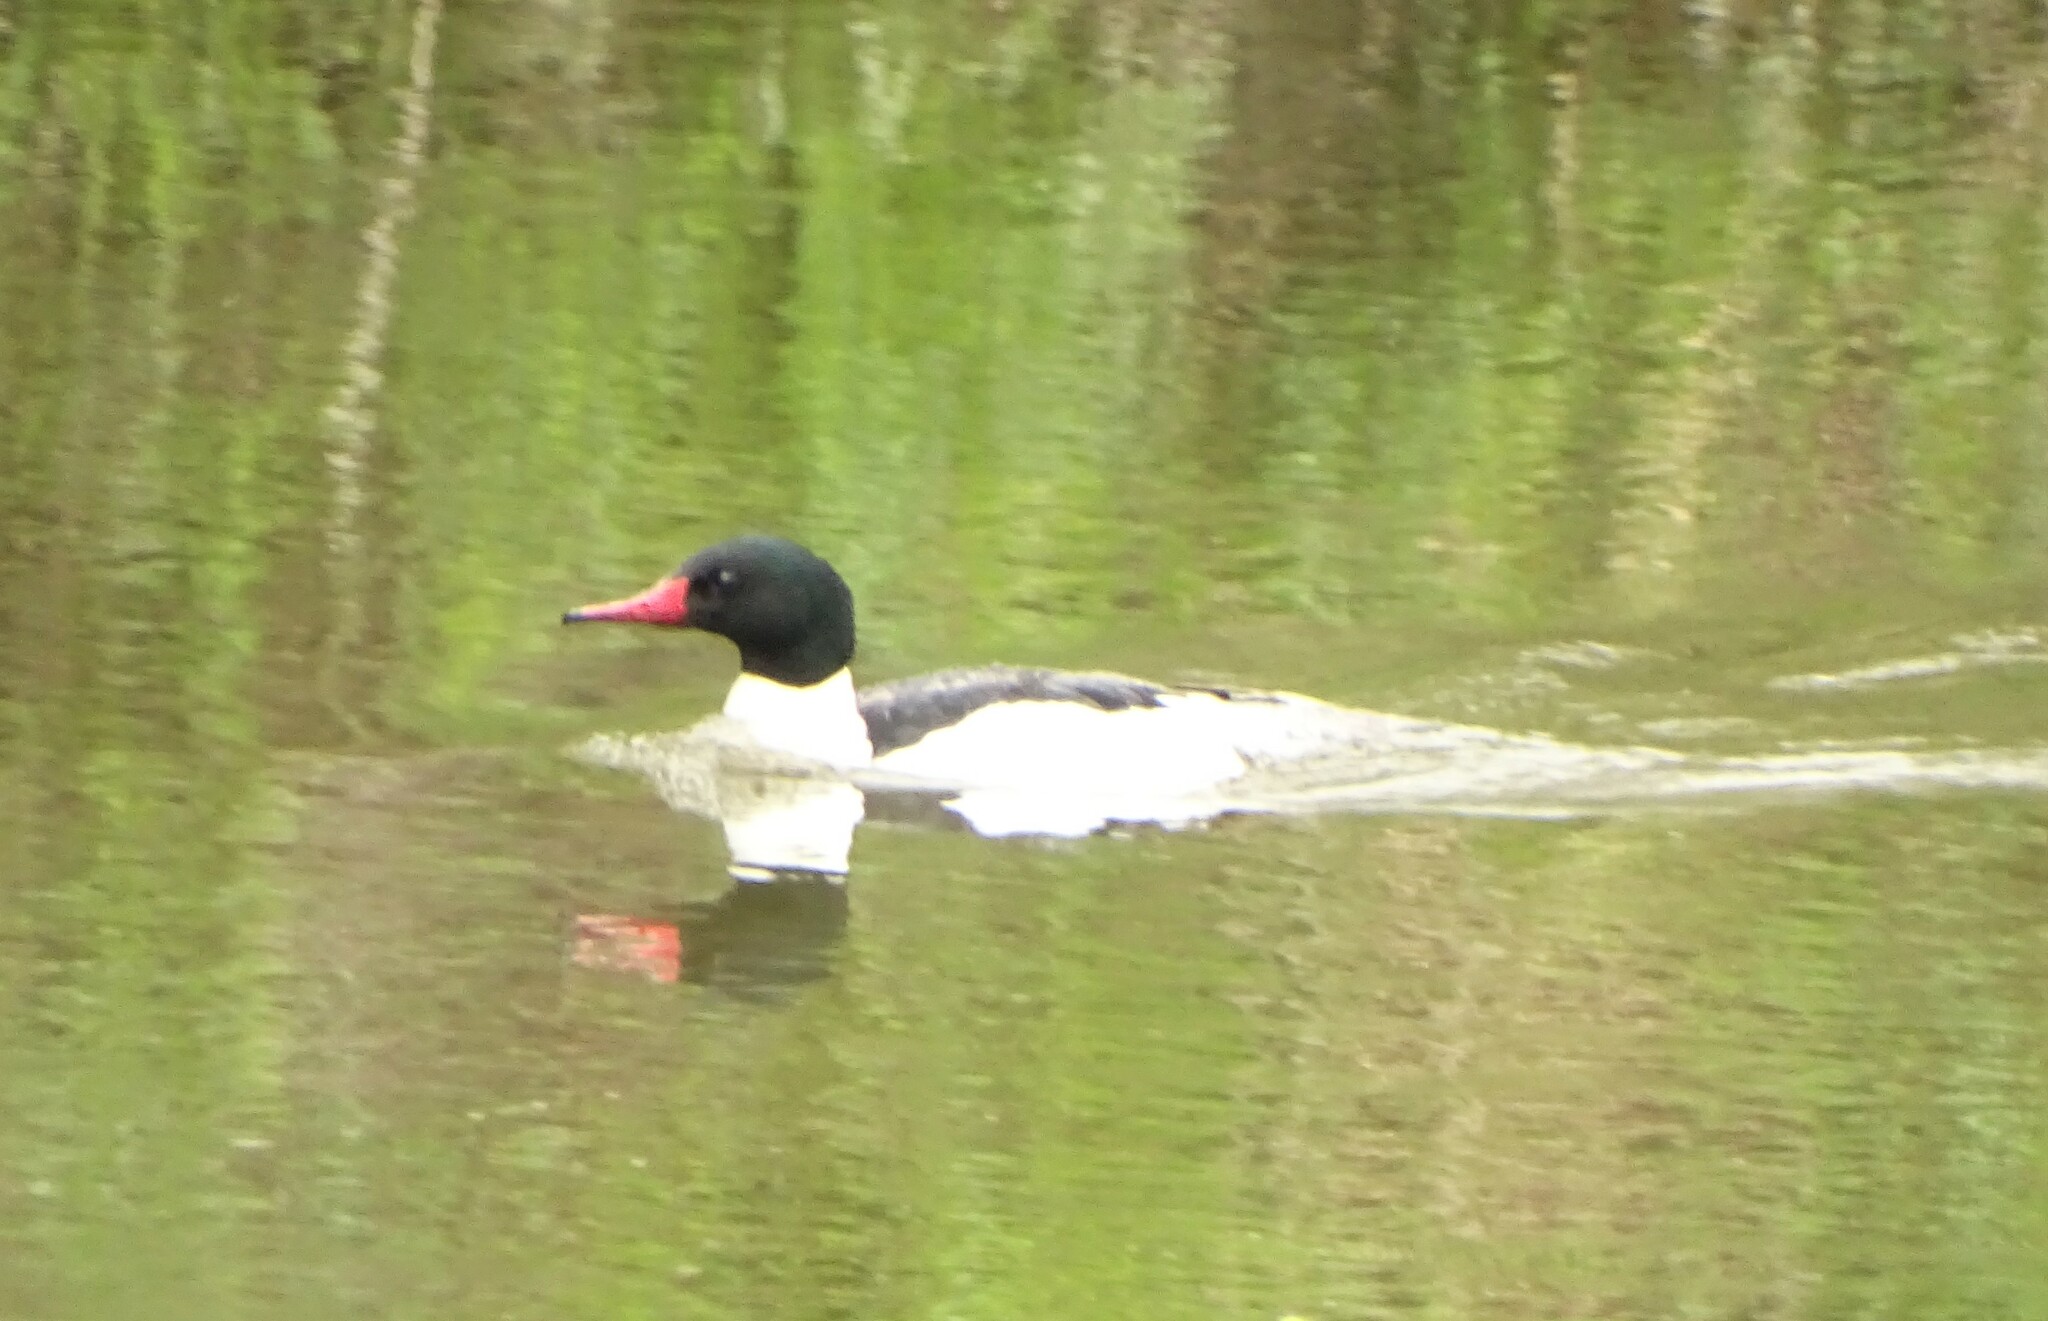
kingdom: Animalia
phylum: Chordata
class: Aves
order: Anseriformes
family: Anatidae
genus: Mergus
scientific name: Mergus merganser
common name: Common merganser
